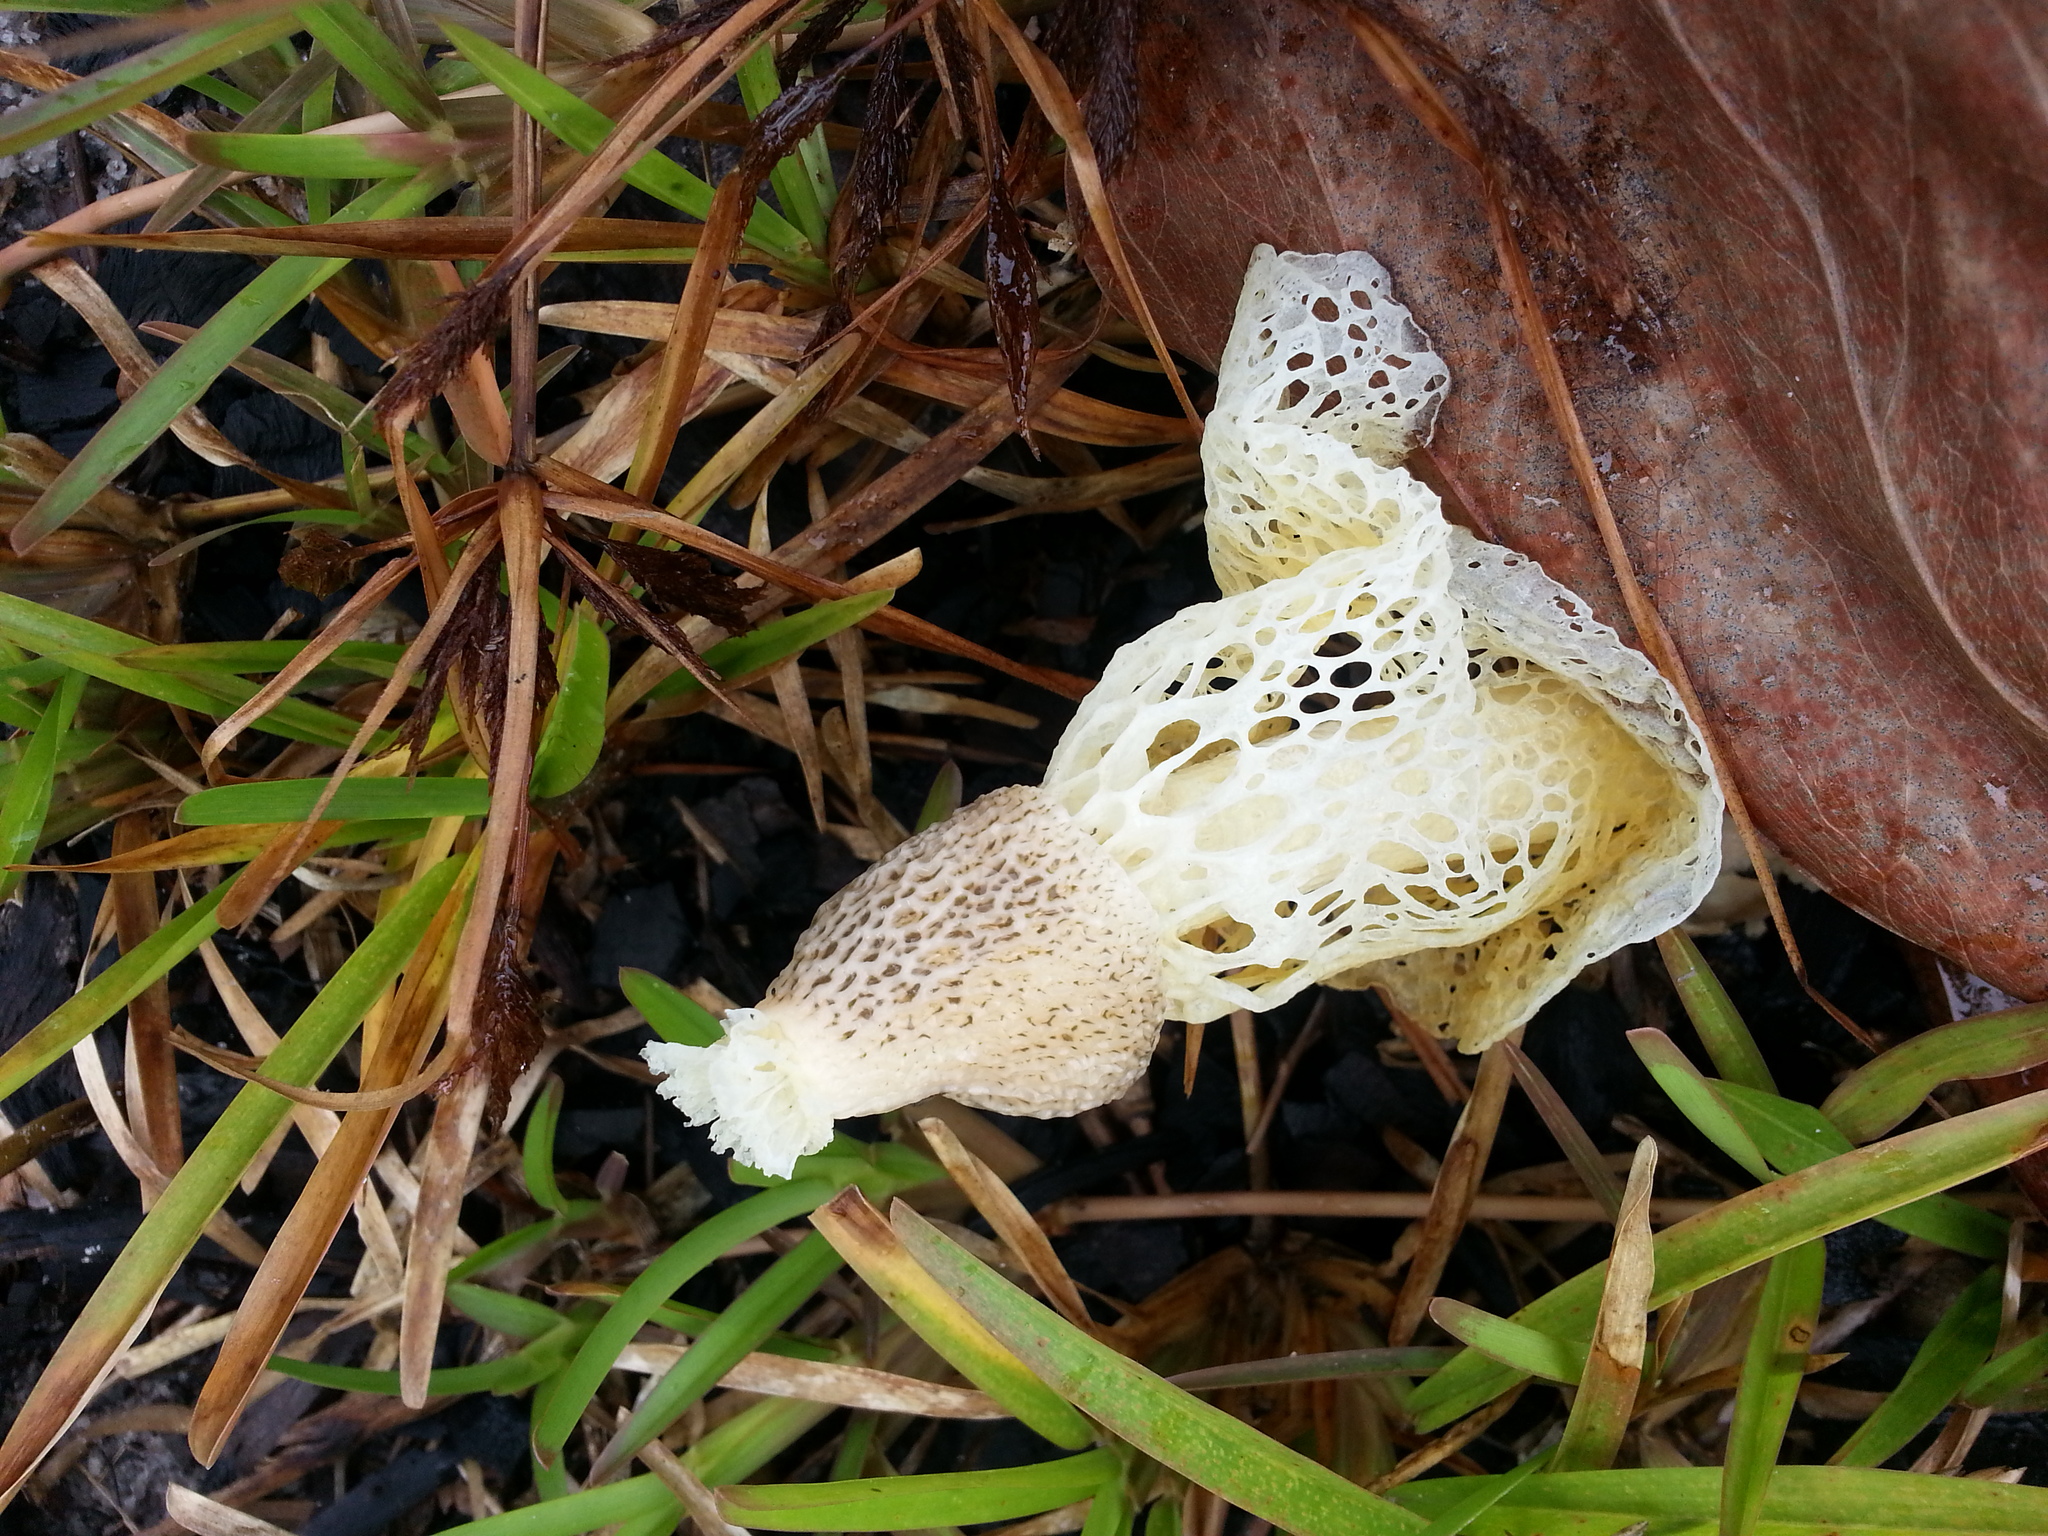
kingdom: Fungi
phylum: Basidiomycota
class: Agaricomycetes
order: Phallales
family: Phallaceae
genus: Phallus
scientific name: Phallus indusiatus
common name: Bridal veil stinkhorn
